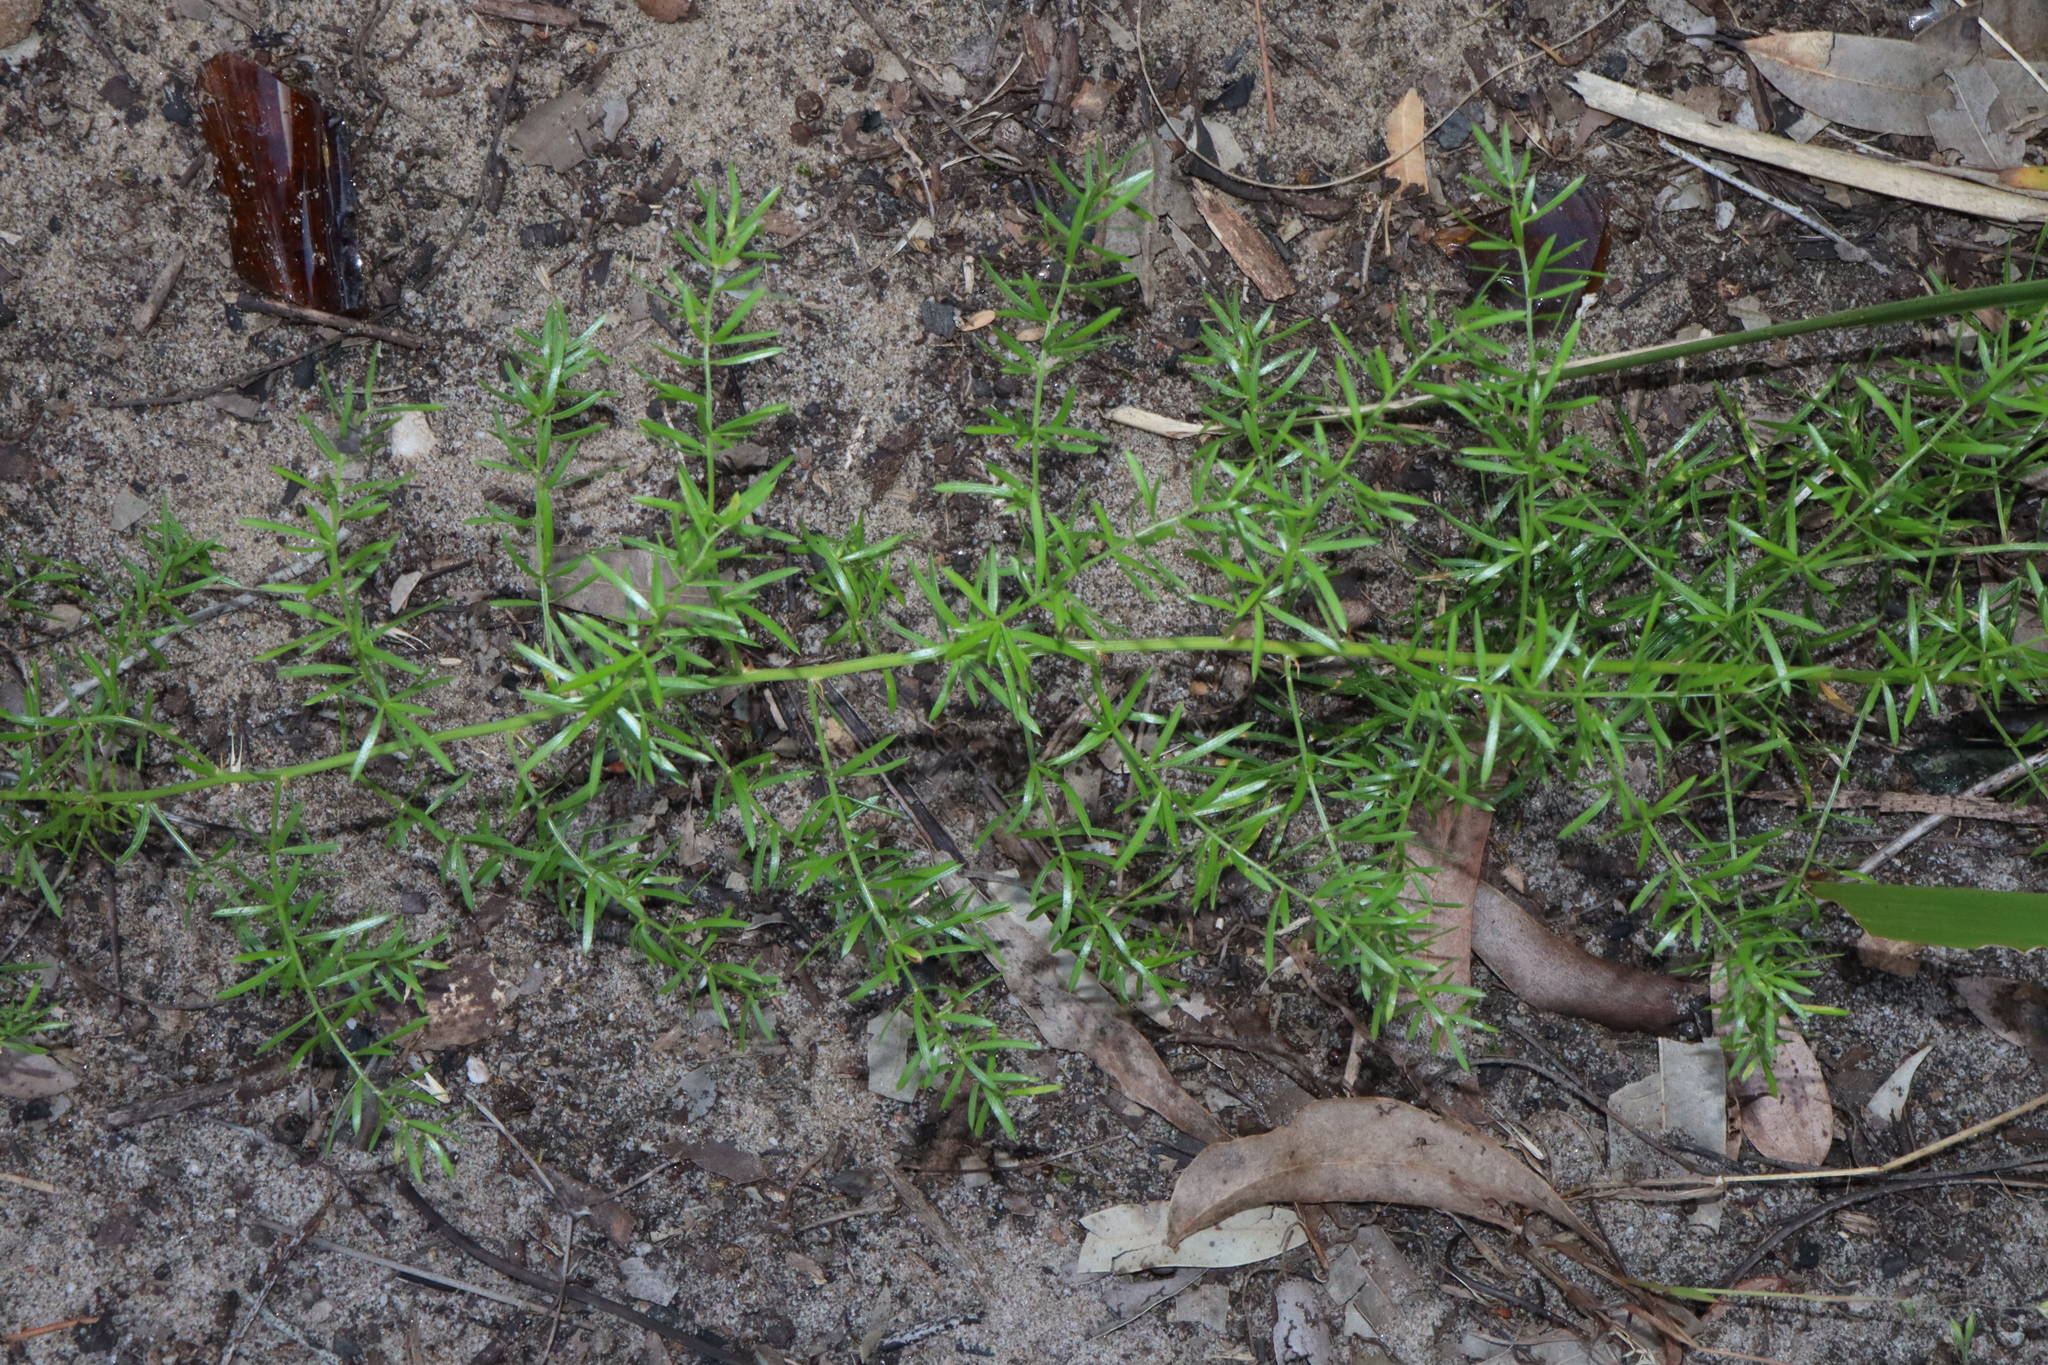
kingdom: Plantae
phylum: Tracheophyta
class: Liliopsida
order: Asparagales
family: Asparagaceae
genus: Asparagus
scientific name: Asparagus aethiopicus
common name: Sprenger's asparagus fern
